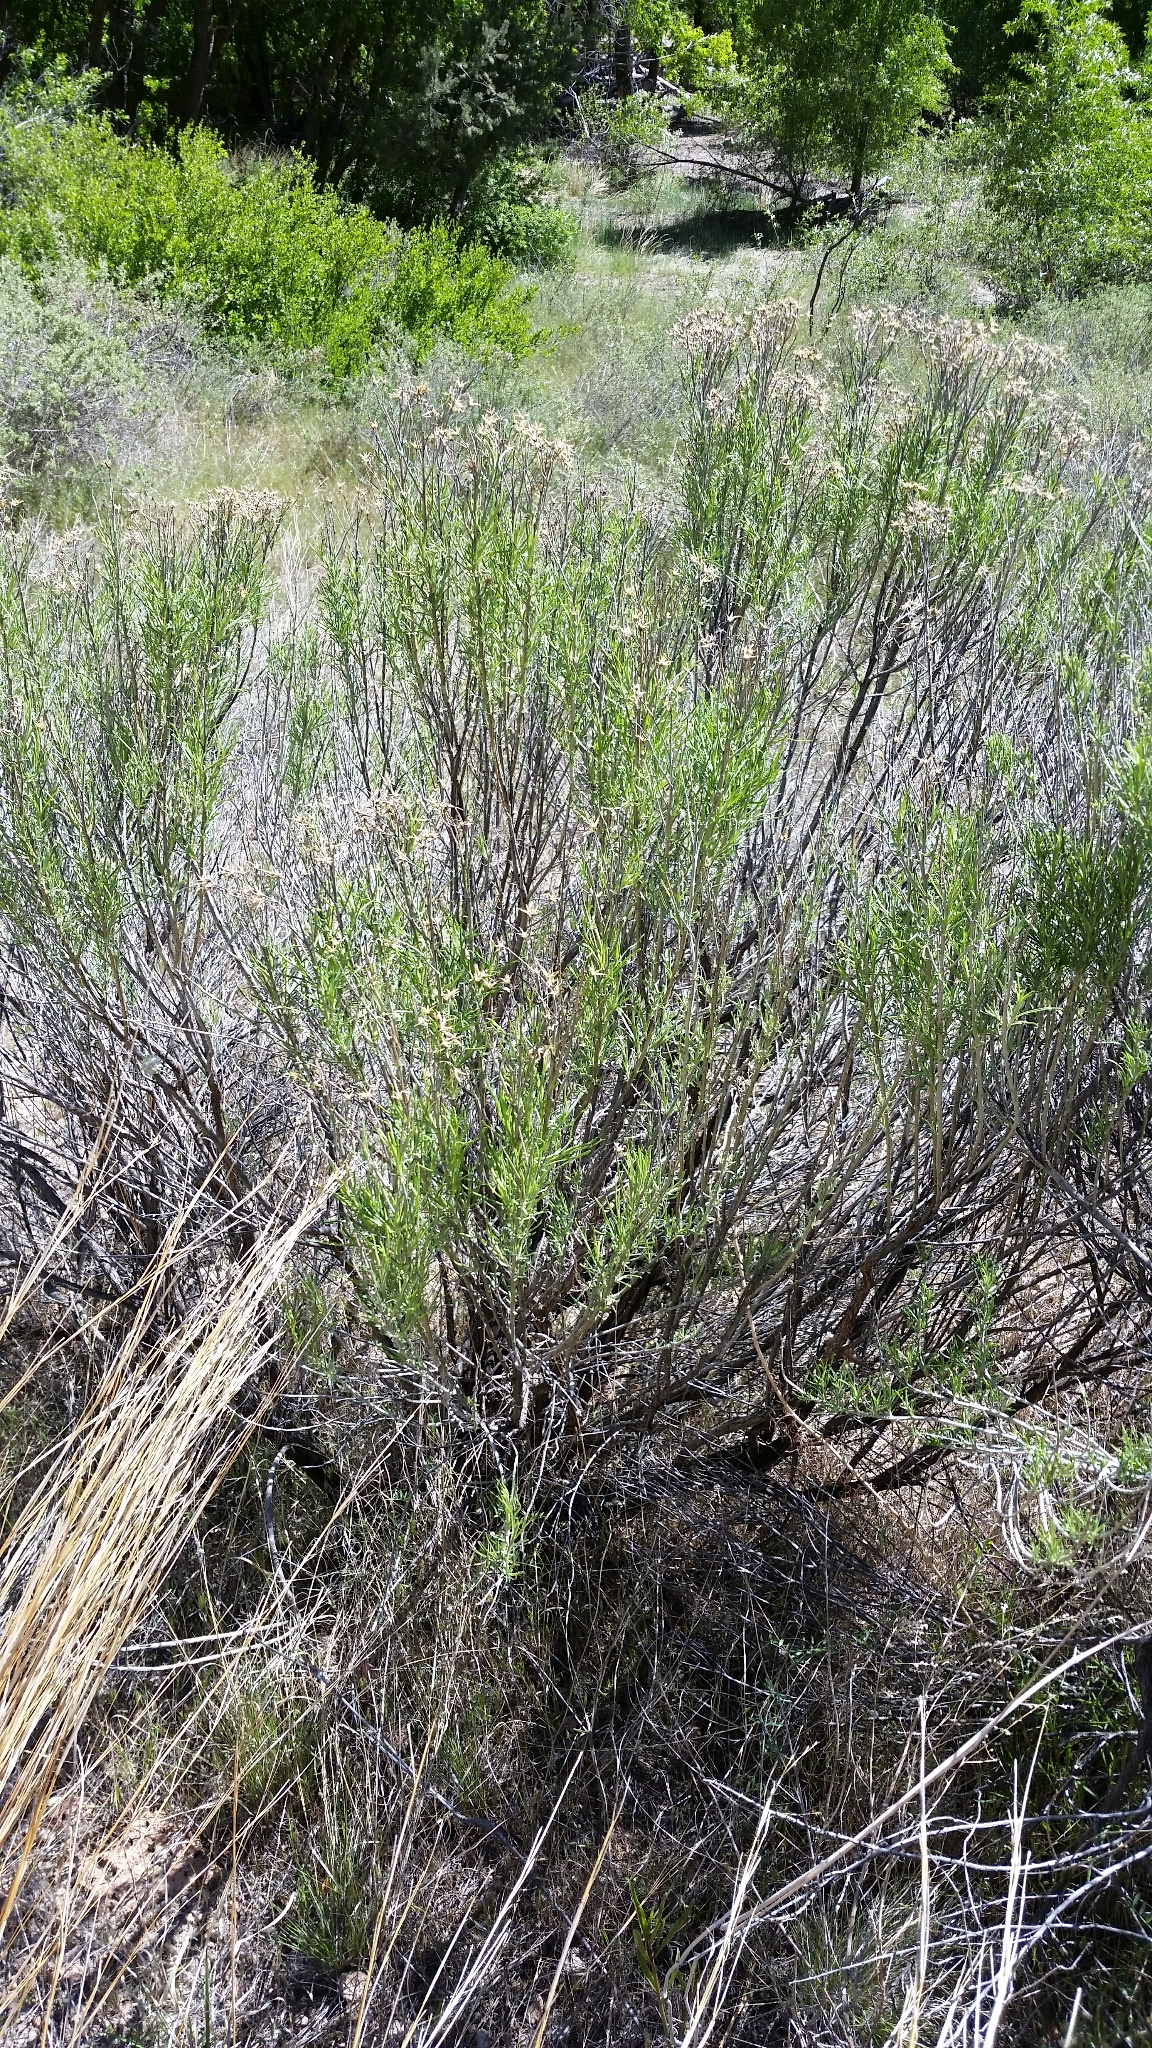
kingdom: Plantae
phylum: Tracheophyta
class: Magnoliopsida
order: Asterales
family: Asteraceae
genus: Ericameria
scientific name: Ericameria nauseosa
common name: Rubber rabbitbrush
